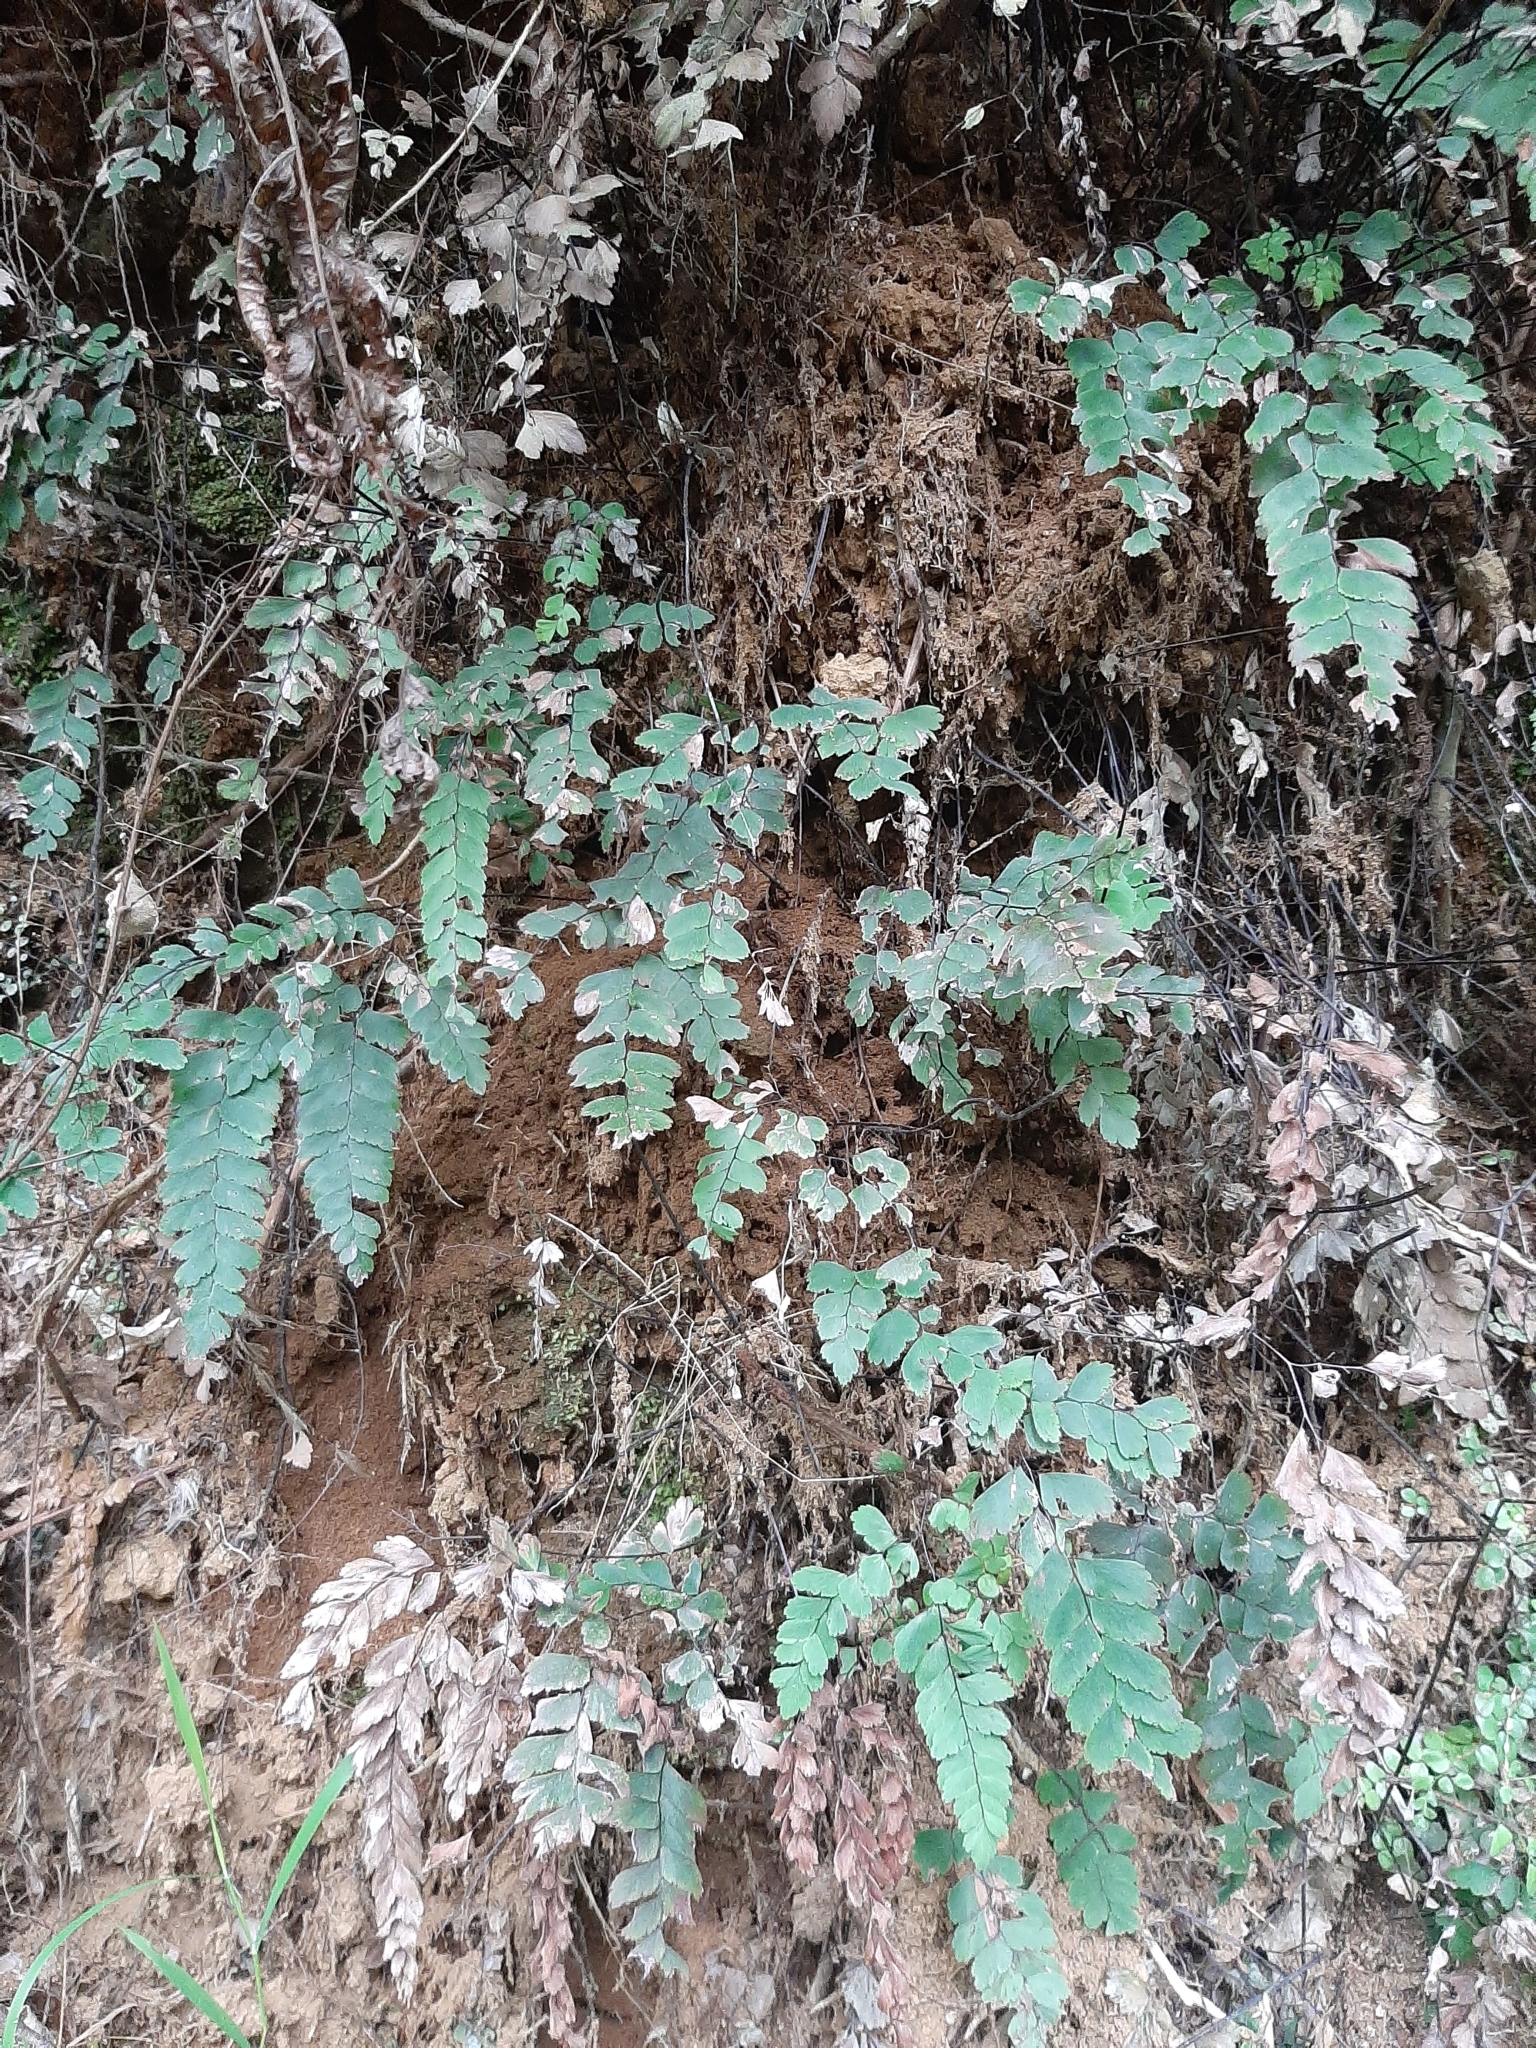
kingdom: Plantae
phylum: Tracheophyta
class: Polypodiopsida
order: Polypodiales
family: Pteridaceae
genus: Adiantum
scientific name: Adiantum cunninghamii
